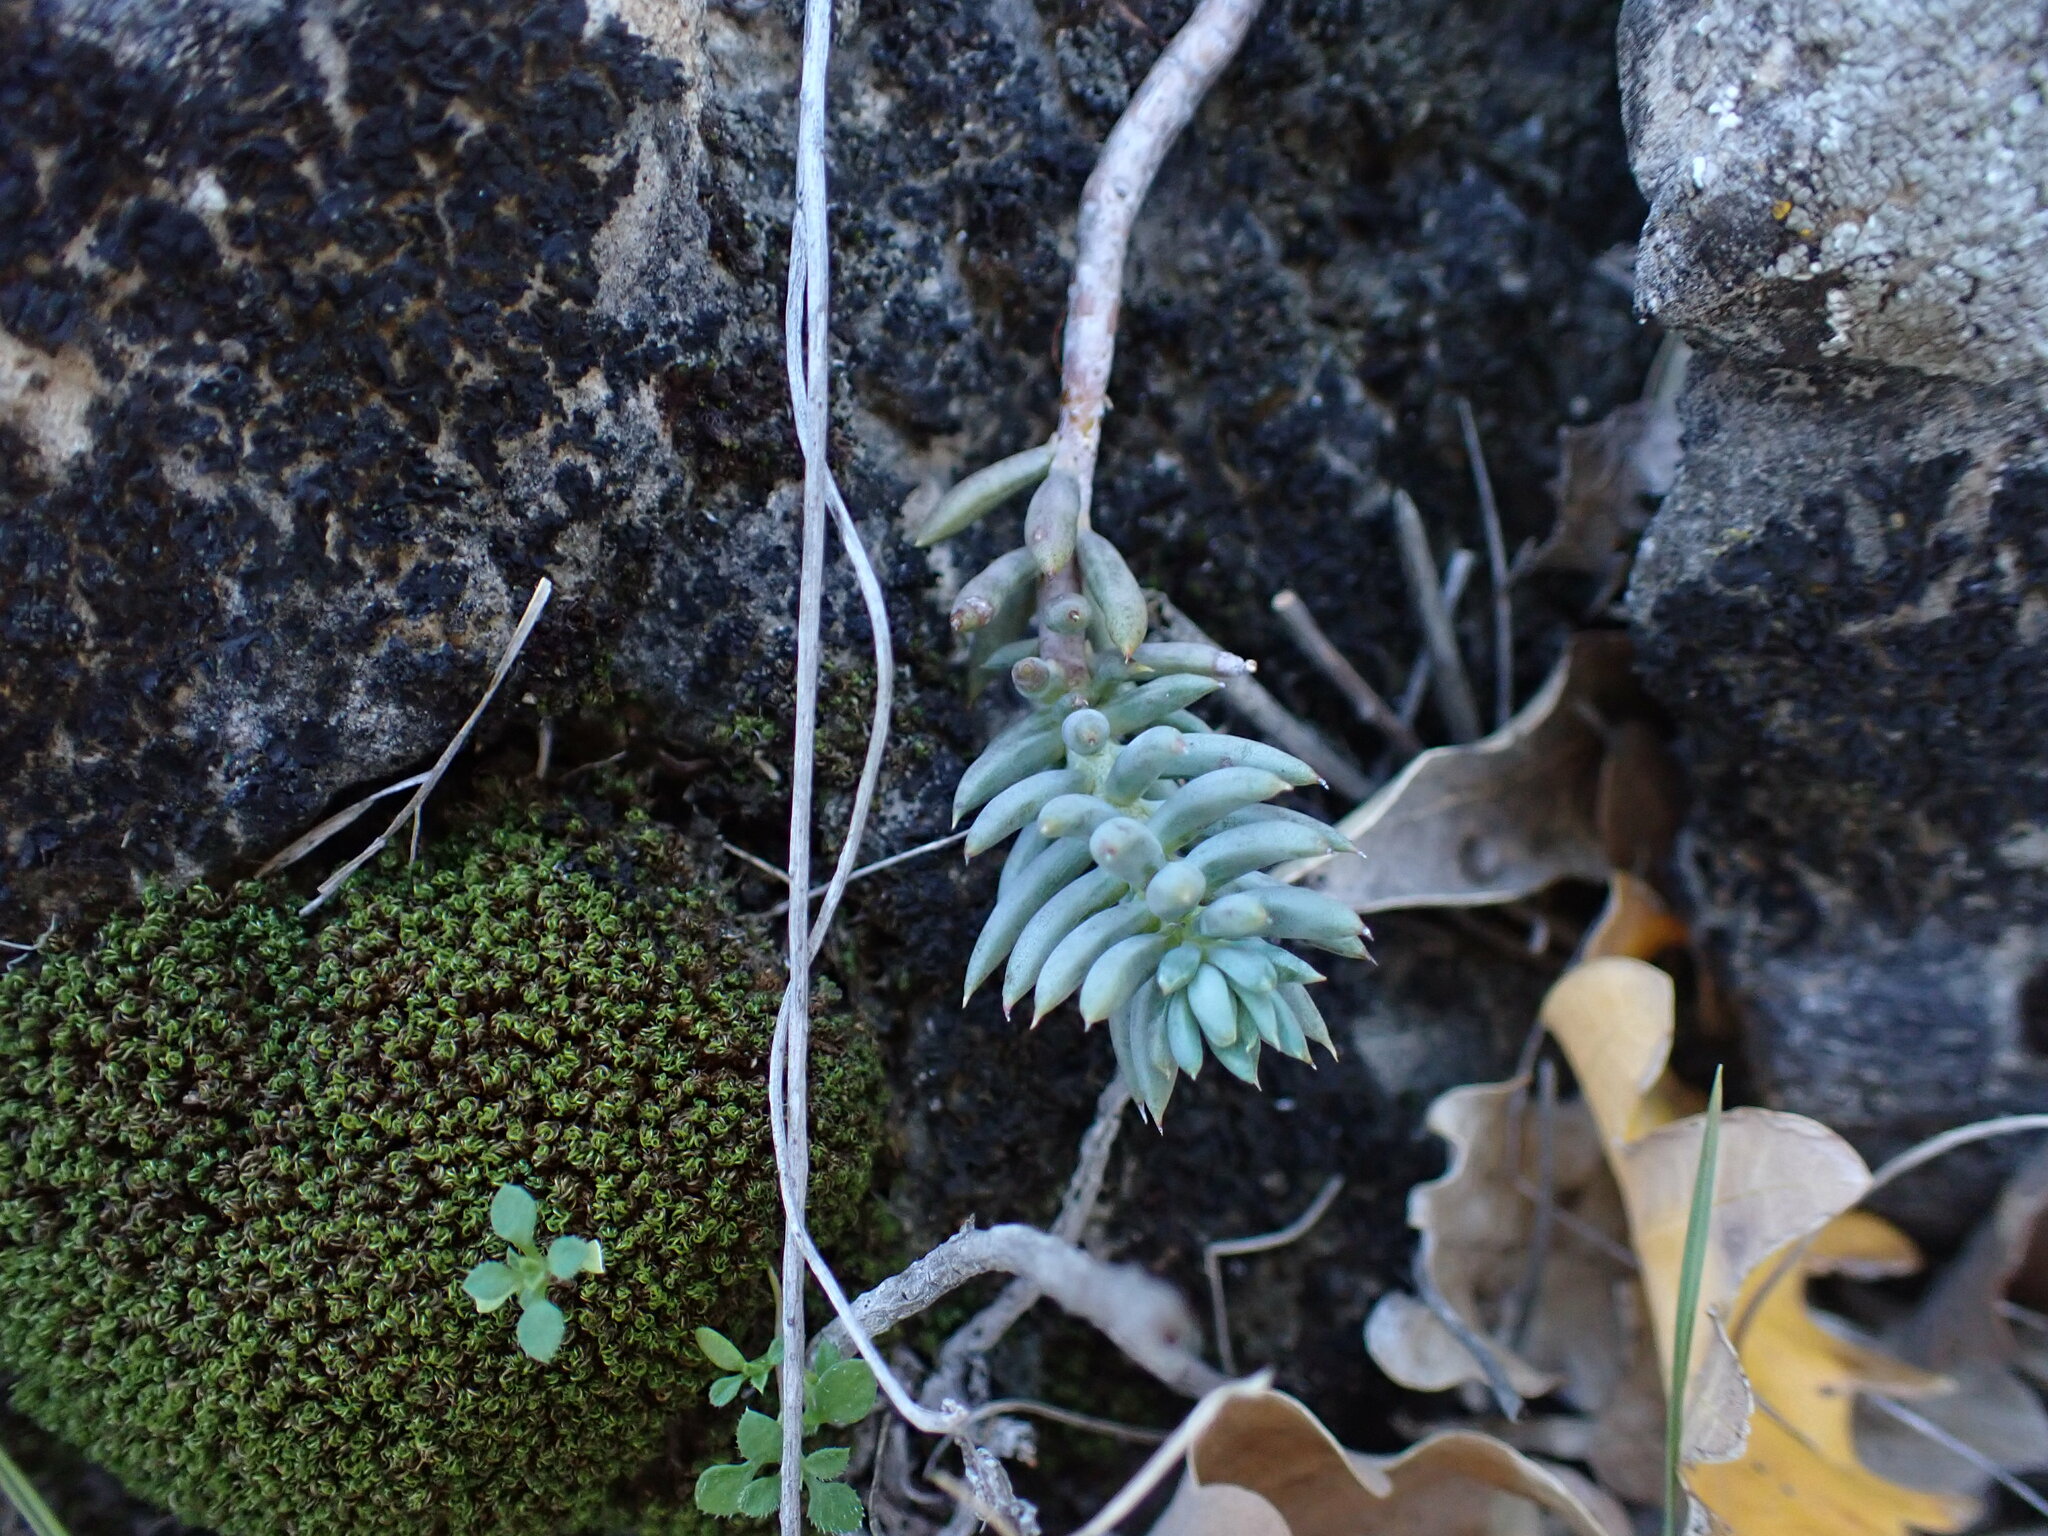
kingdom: Plantae
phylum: Tracheophyta
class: Magnoliopsida
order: Saxifragales
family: Crassulaceae
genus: Petrosedum
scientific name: Petrosedum sediforme
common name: Pale stonecrop
